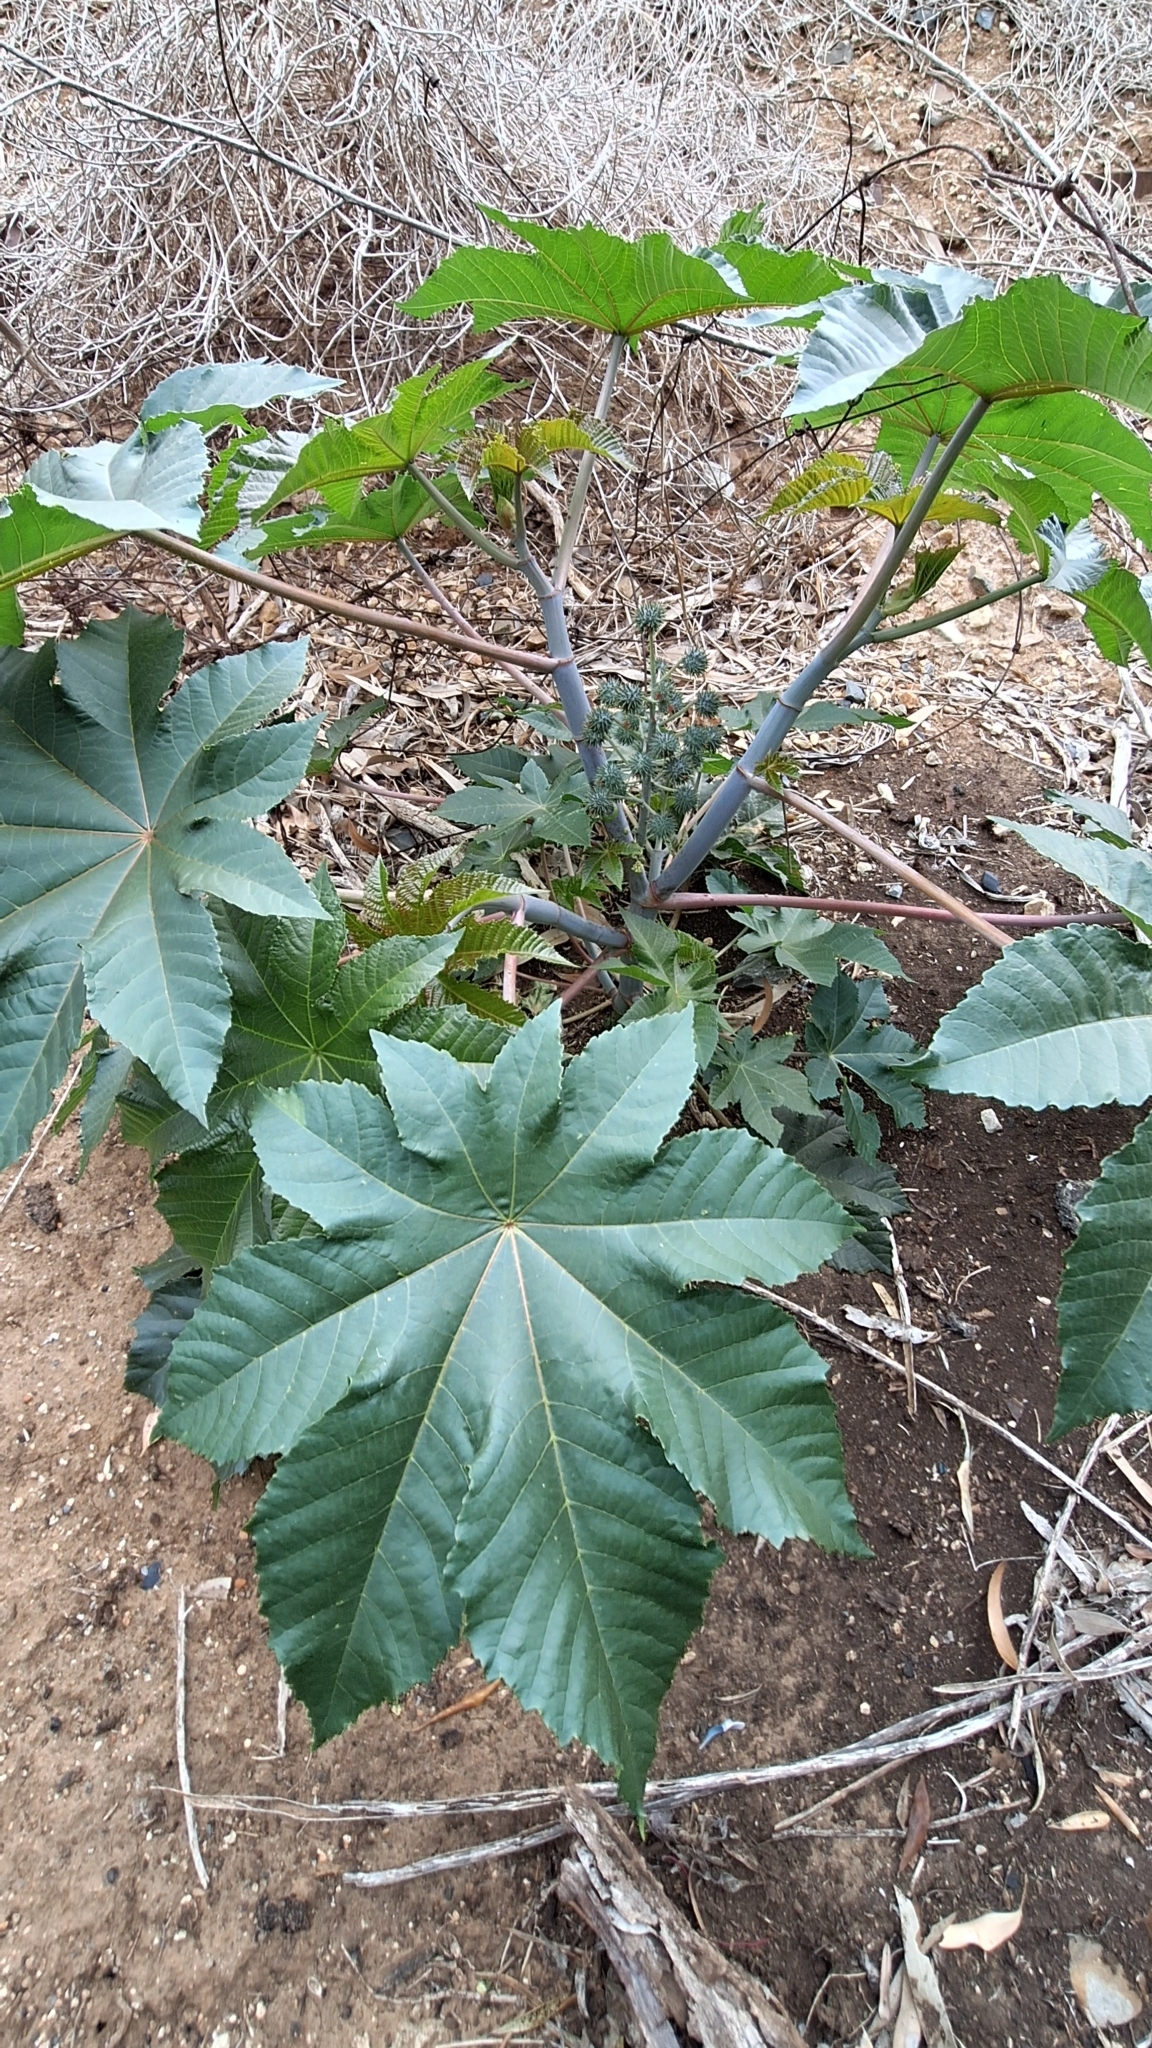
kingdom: Plantae
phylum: Tracheophyta
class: Magnoliopsida
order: Malpighiales
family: Euphorbiaceae
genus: Ricinus
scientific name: Ricinus communis
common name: Castor-oil-plant
